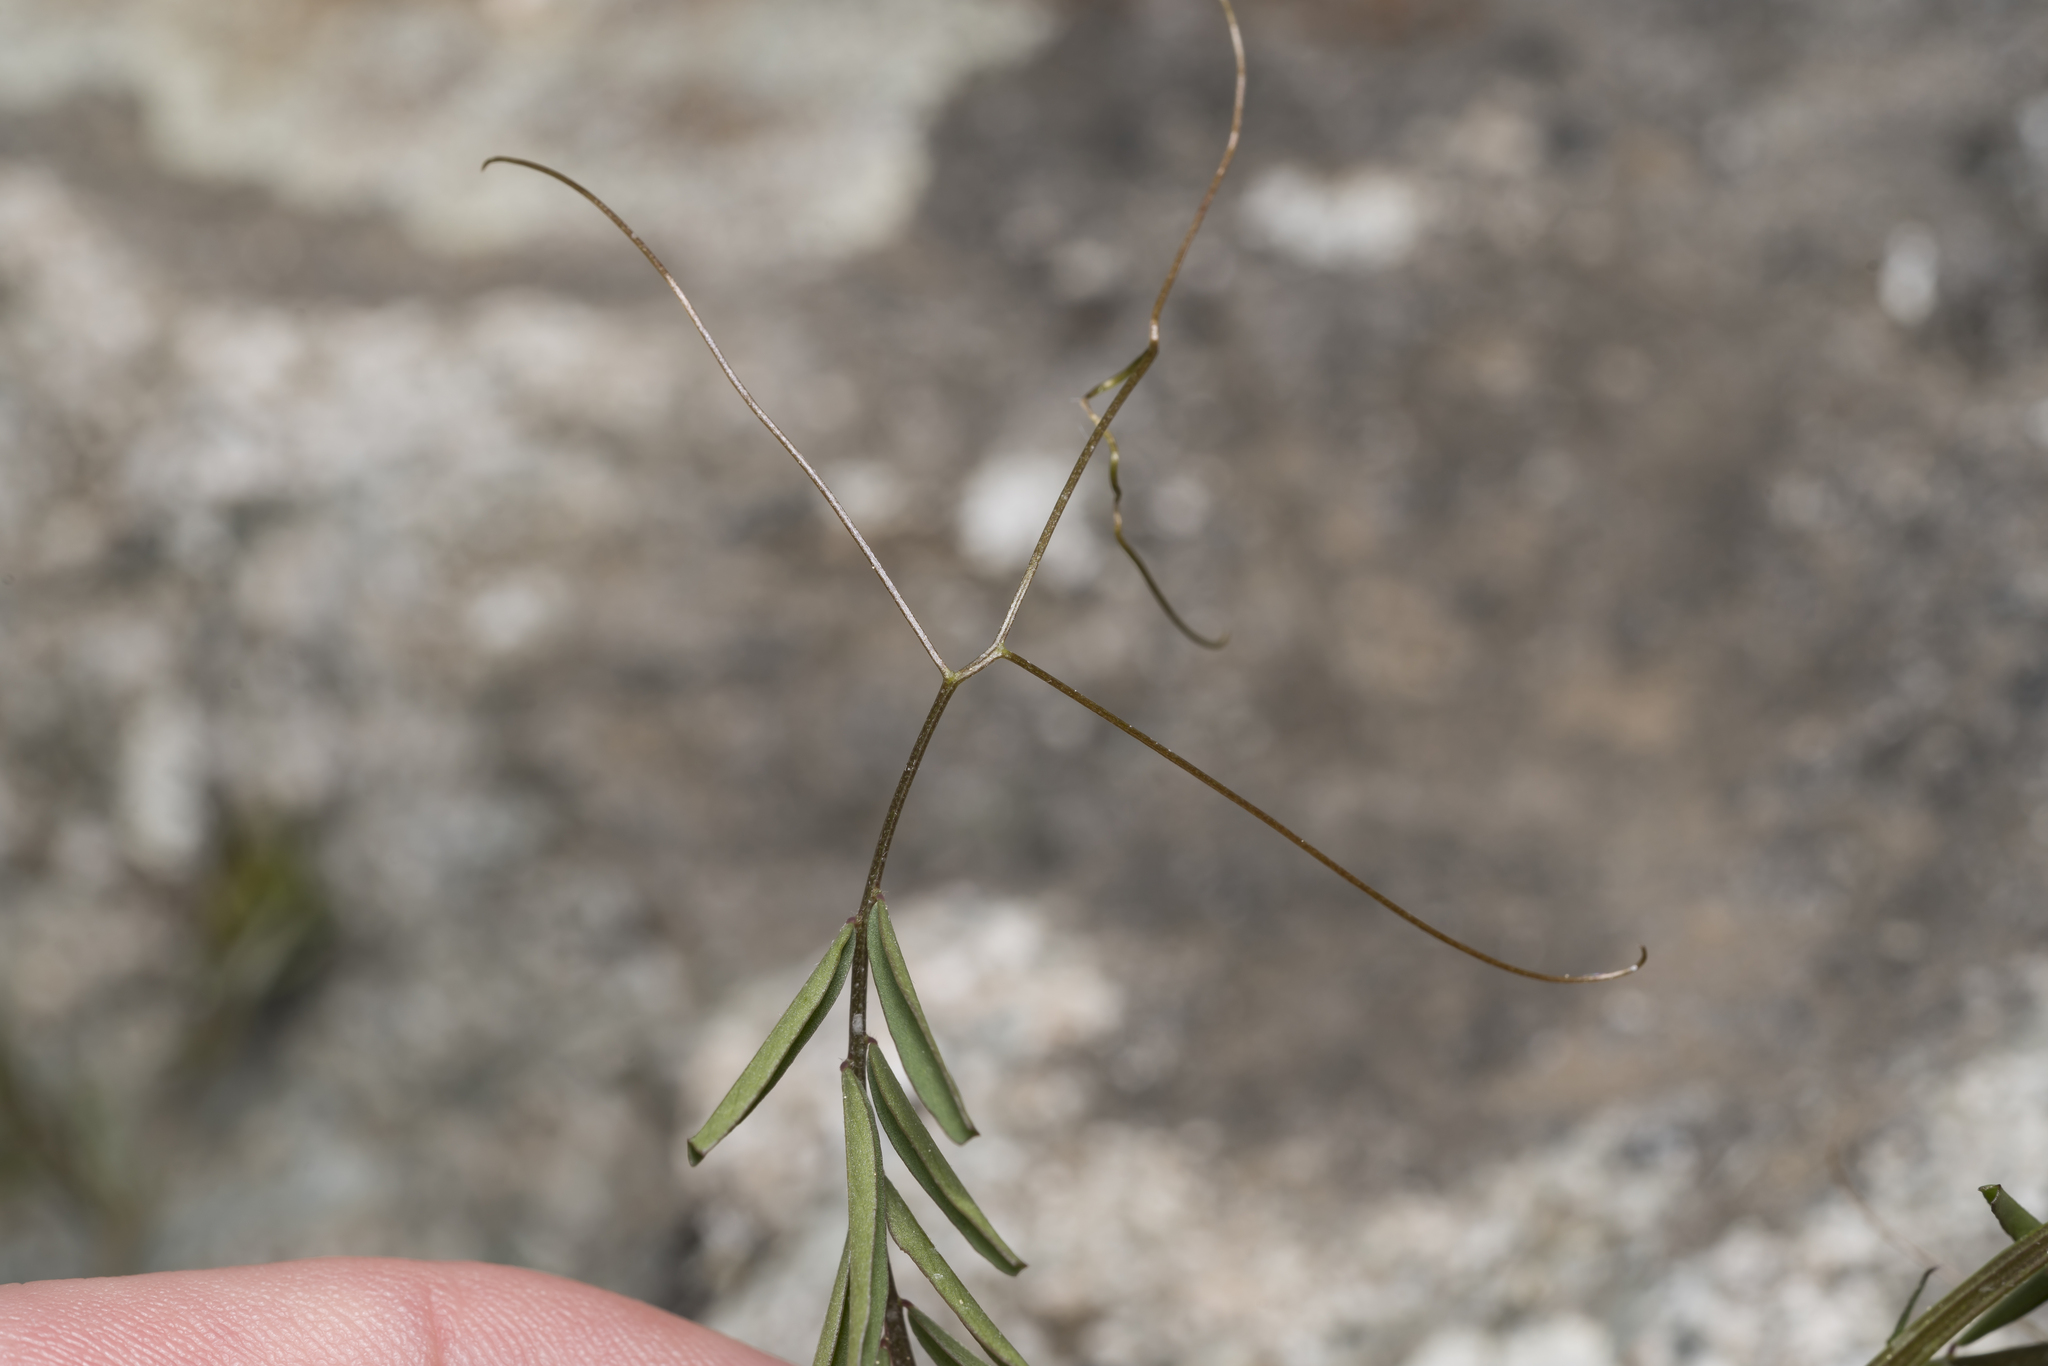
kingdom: Plantae
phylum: Tracheophyta
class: Magnoliopsida
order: Fabales
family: Fabaceae
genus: Vicia
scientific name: Vicia hirsuta
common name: Tiny vetch
